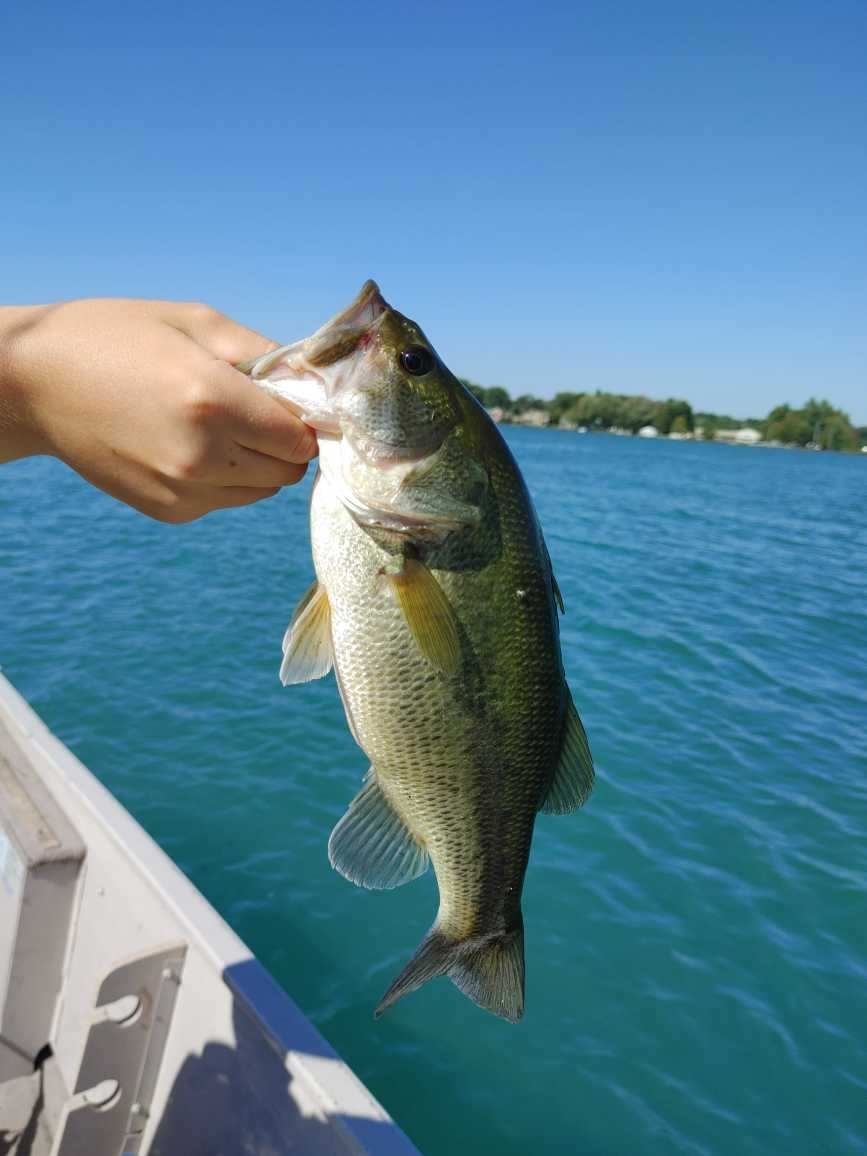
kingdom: Animalia
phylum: Chordata
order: Perciformes
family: Centrarchidae
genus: Micropterus
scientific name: Micropterus
